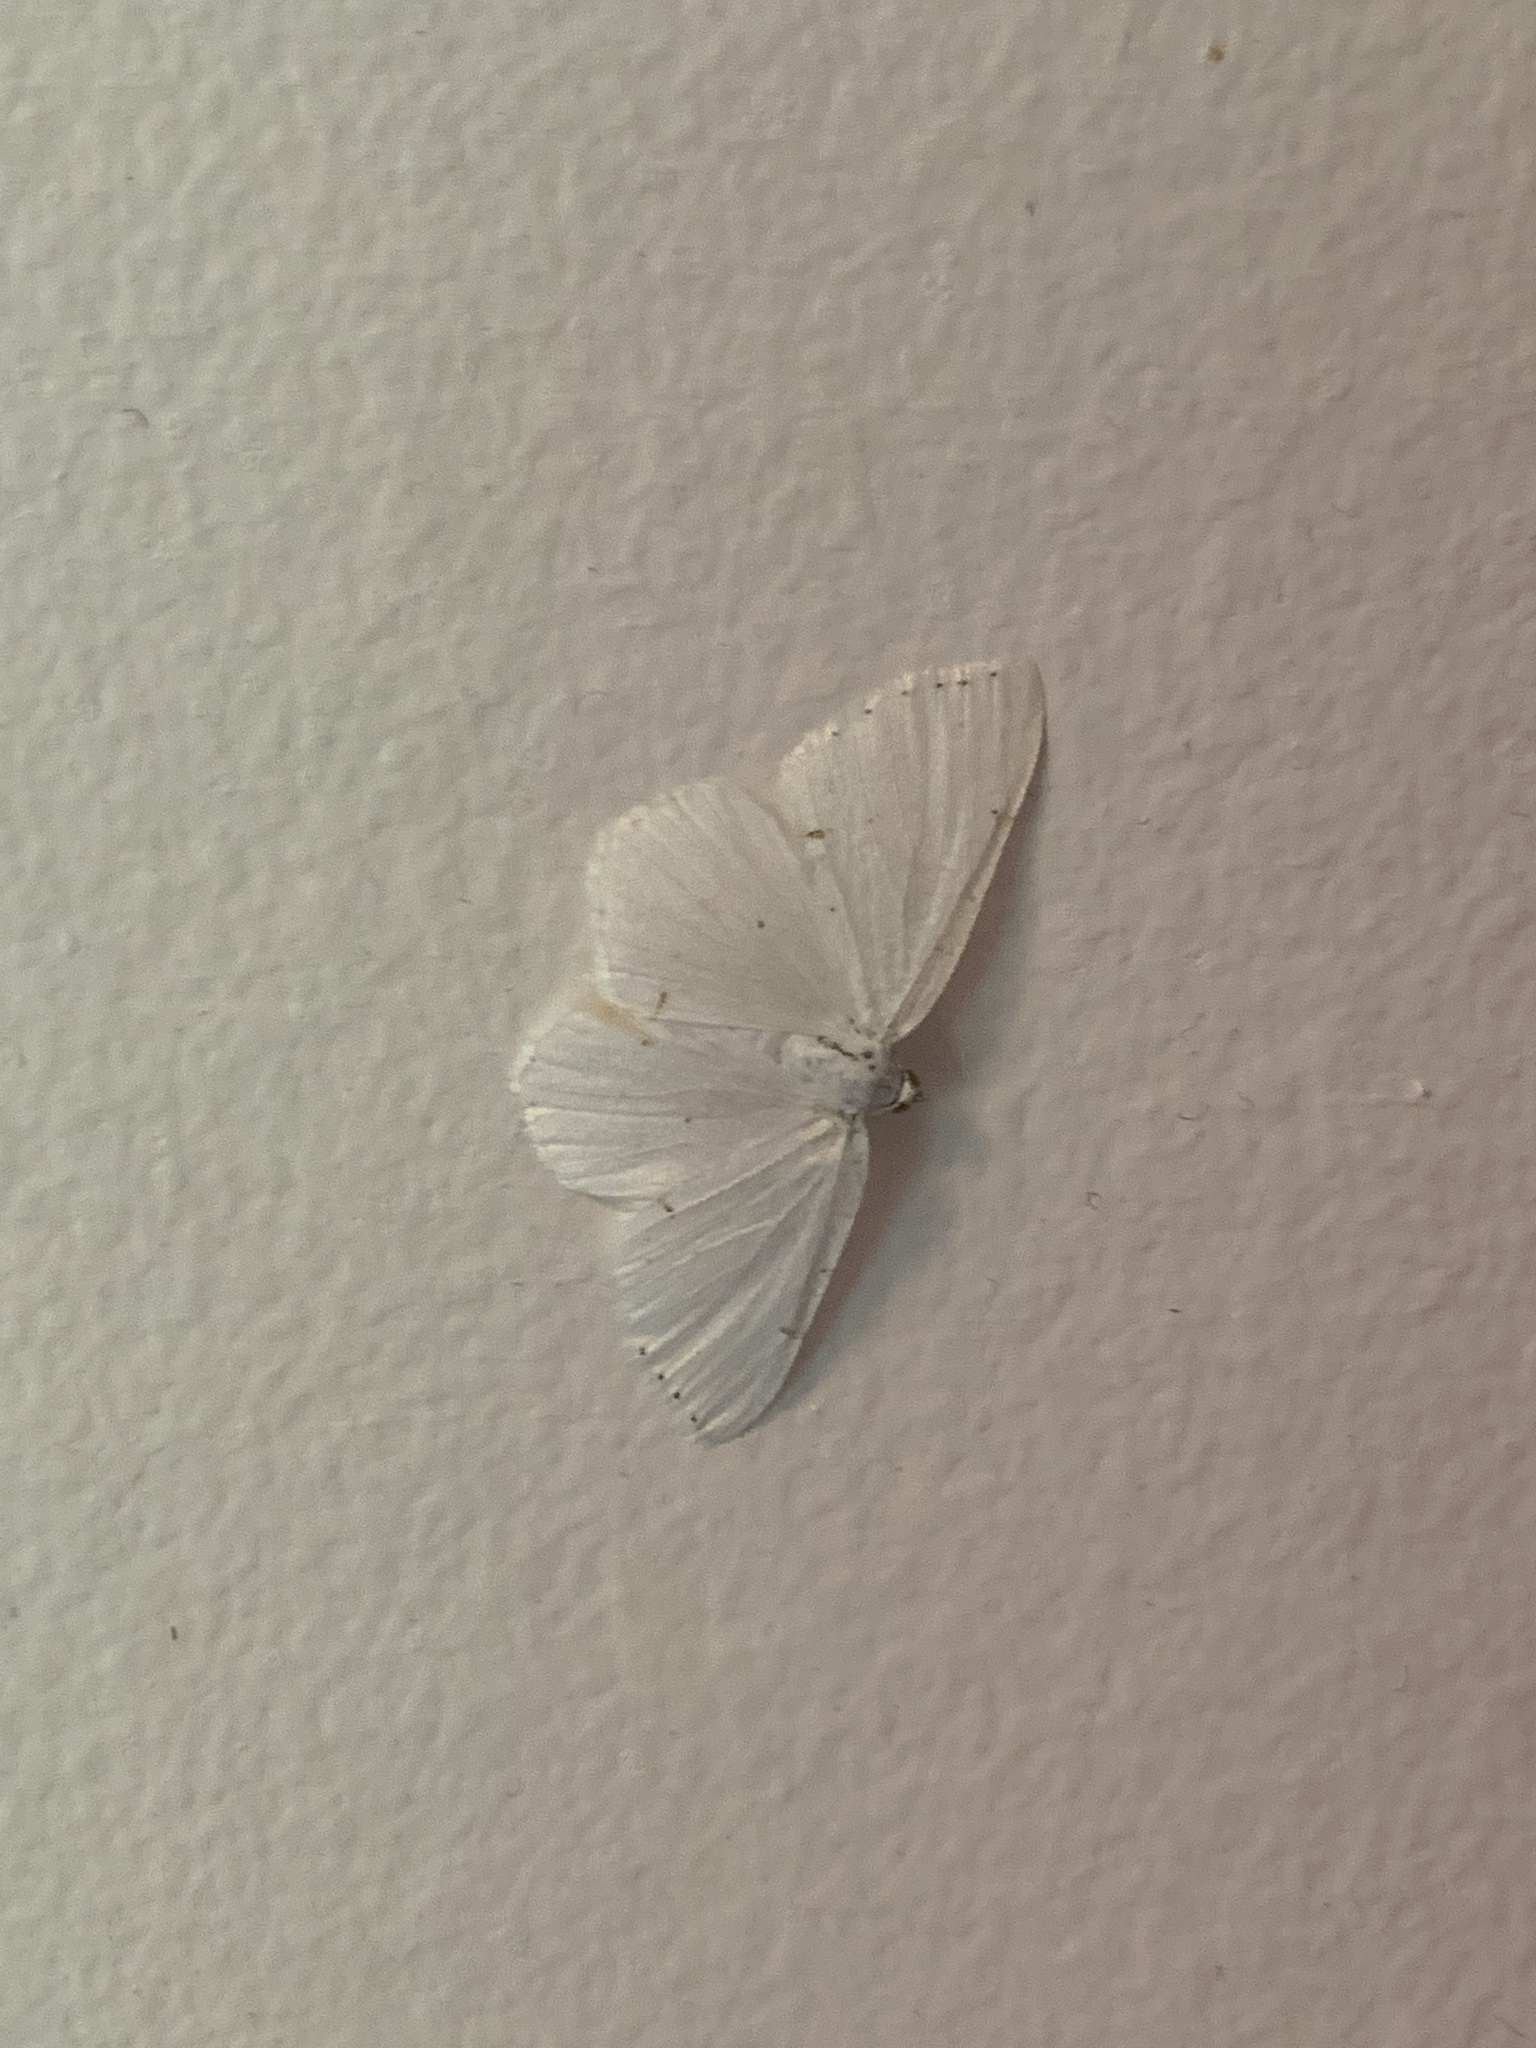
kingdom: Animalia
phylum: Arthropoda
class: Insecta
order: Lepidoptera
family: Geometridae
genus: Macaria
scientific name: Macaria pustularia
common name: Lesser maple spanworm moth
